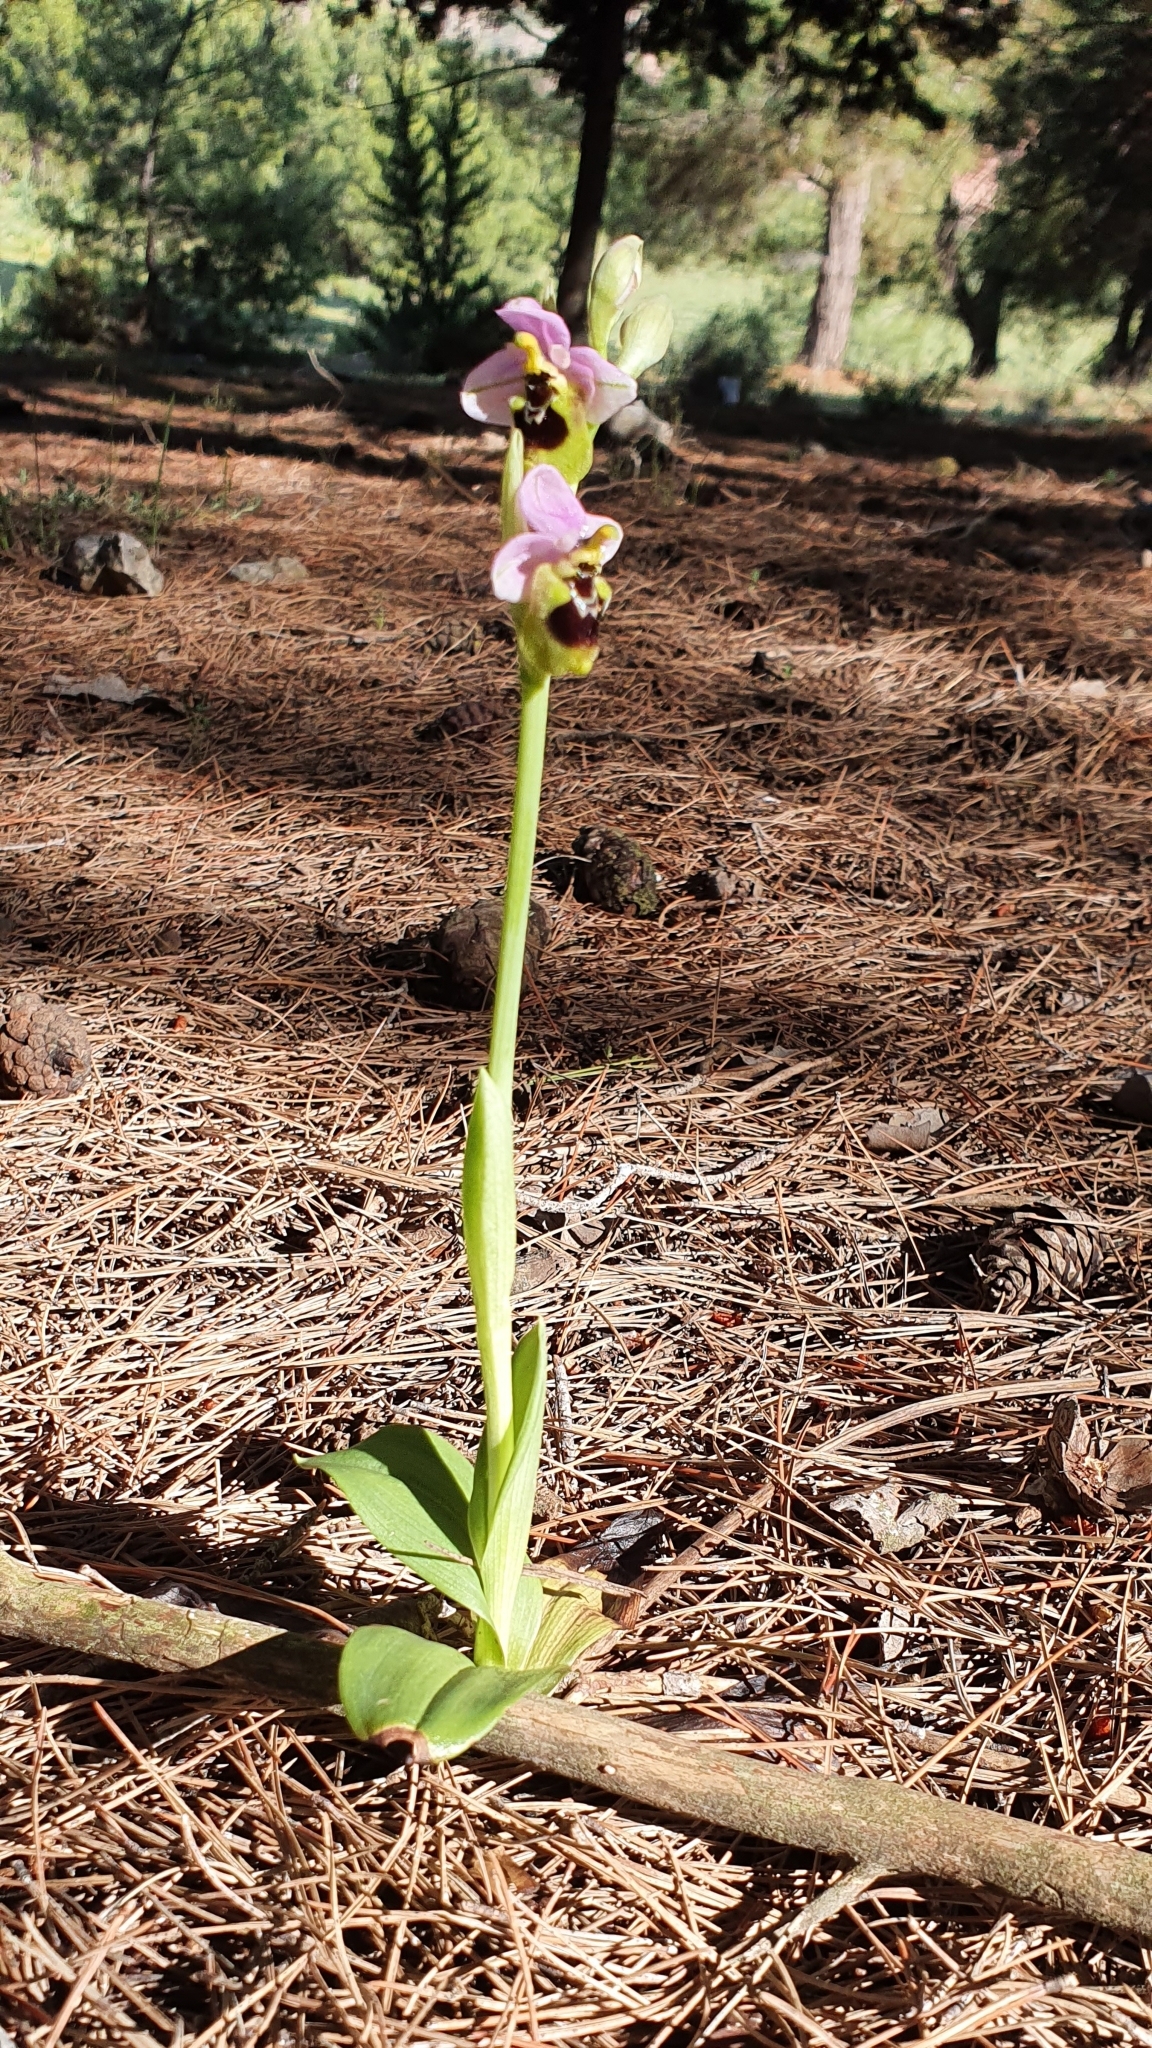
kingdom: Plantae
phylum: Tracheophyta
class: Liliopsida
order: Asparagales
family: Orchidaceae
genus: Ophrys
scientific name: Ophrys tenthredinifera
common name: Sawfly orchid
